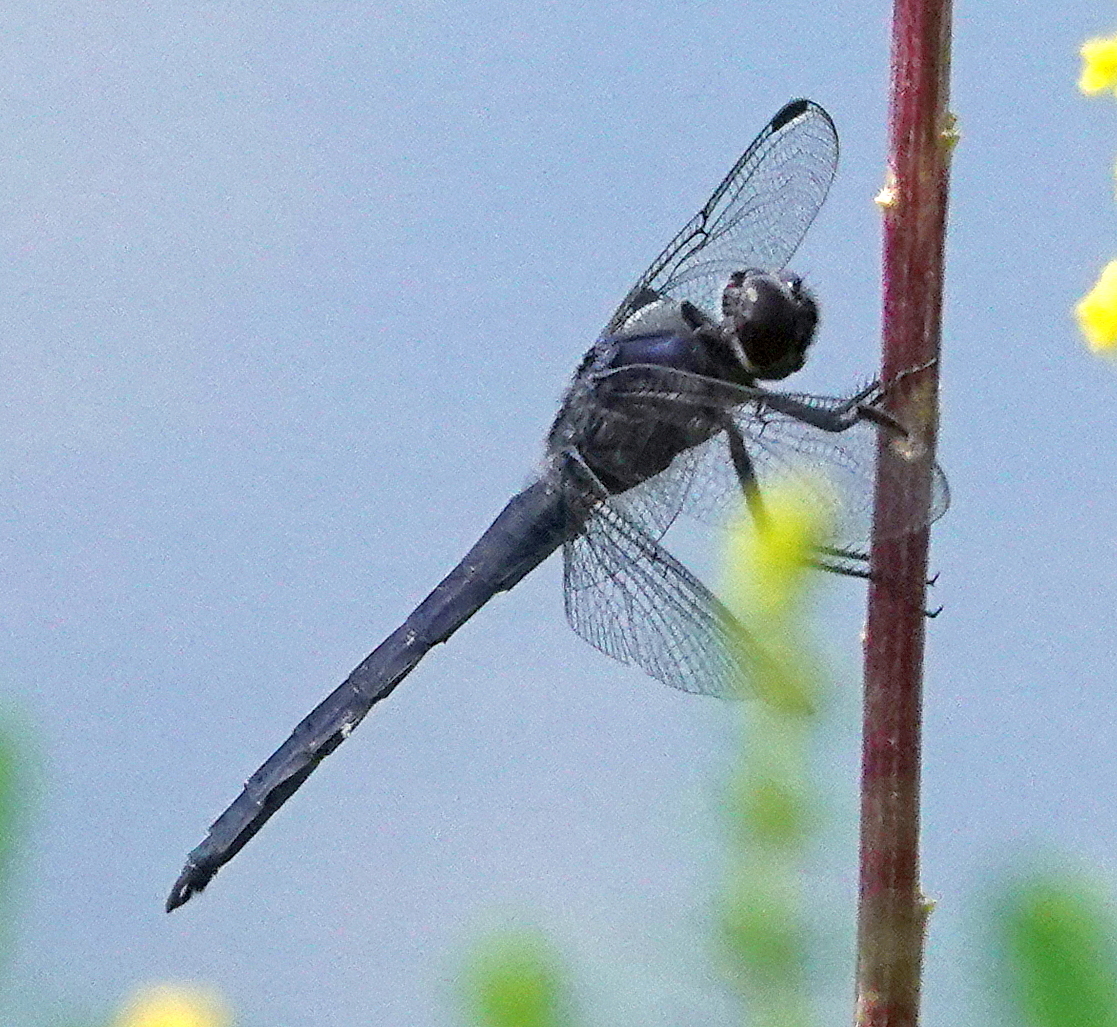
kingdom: Animalia
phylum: Arthropoda
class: Insecta
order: Odonata
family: Libellulidae
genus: Libellula
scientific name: Libellula incesta
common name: Slaty skimmer
